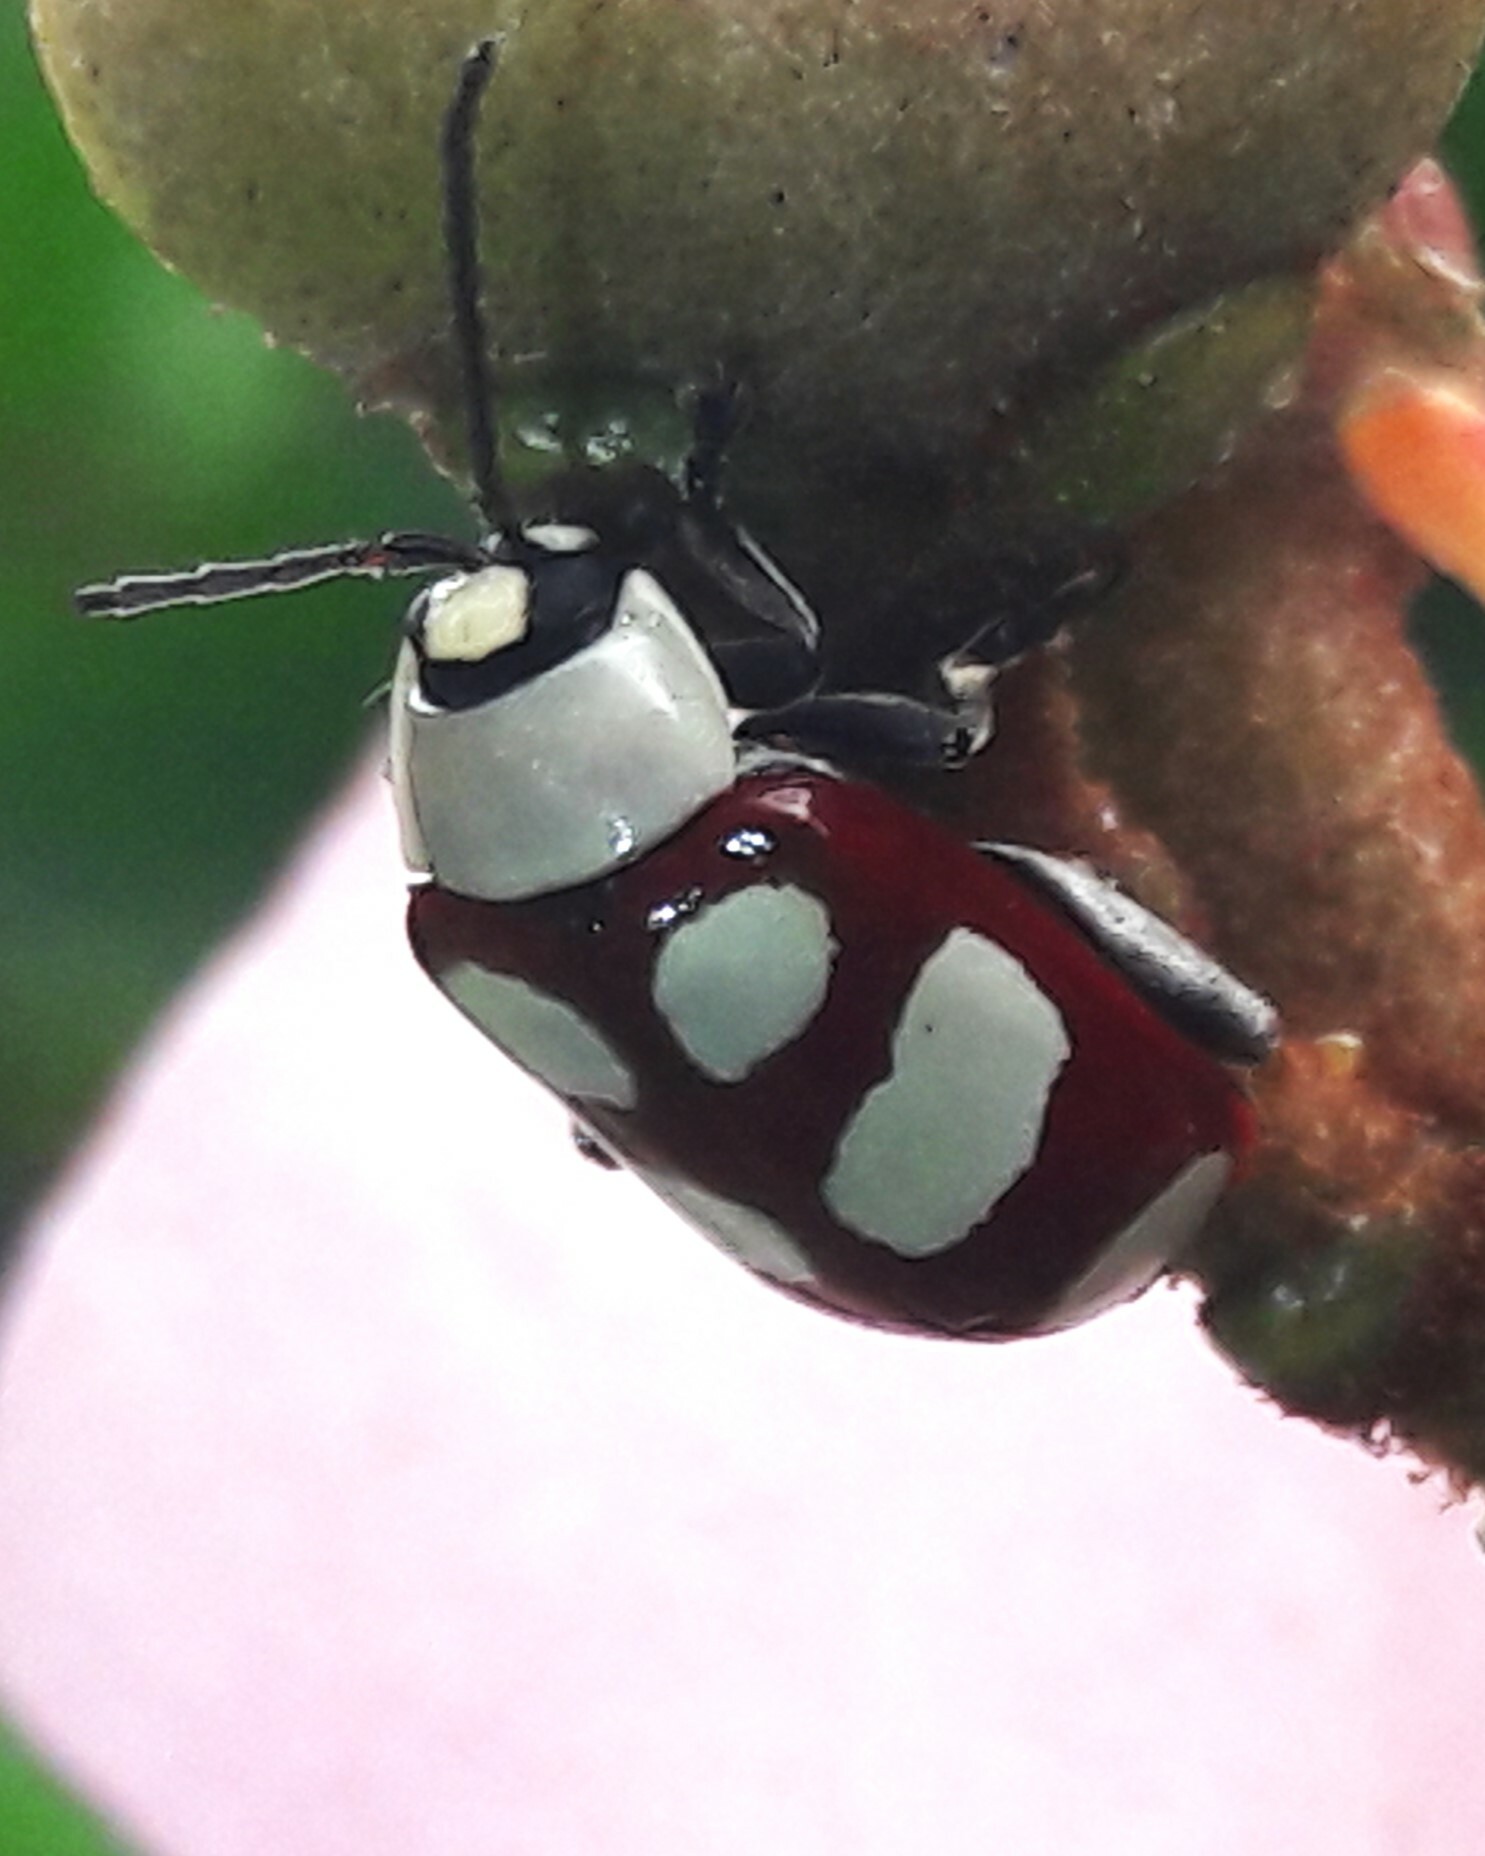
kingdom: Animalia
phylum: Arthropoda
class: Insecta
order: Coleoptera
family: Chrysomelidae
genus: Omophoita
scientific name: Omophoita
